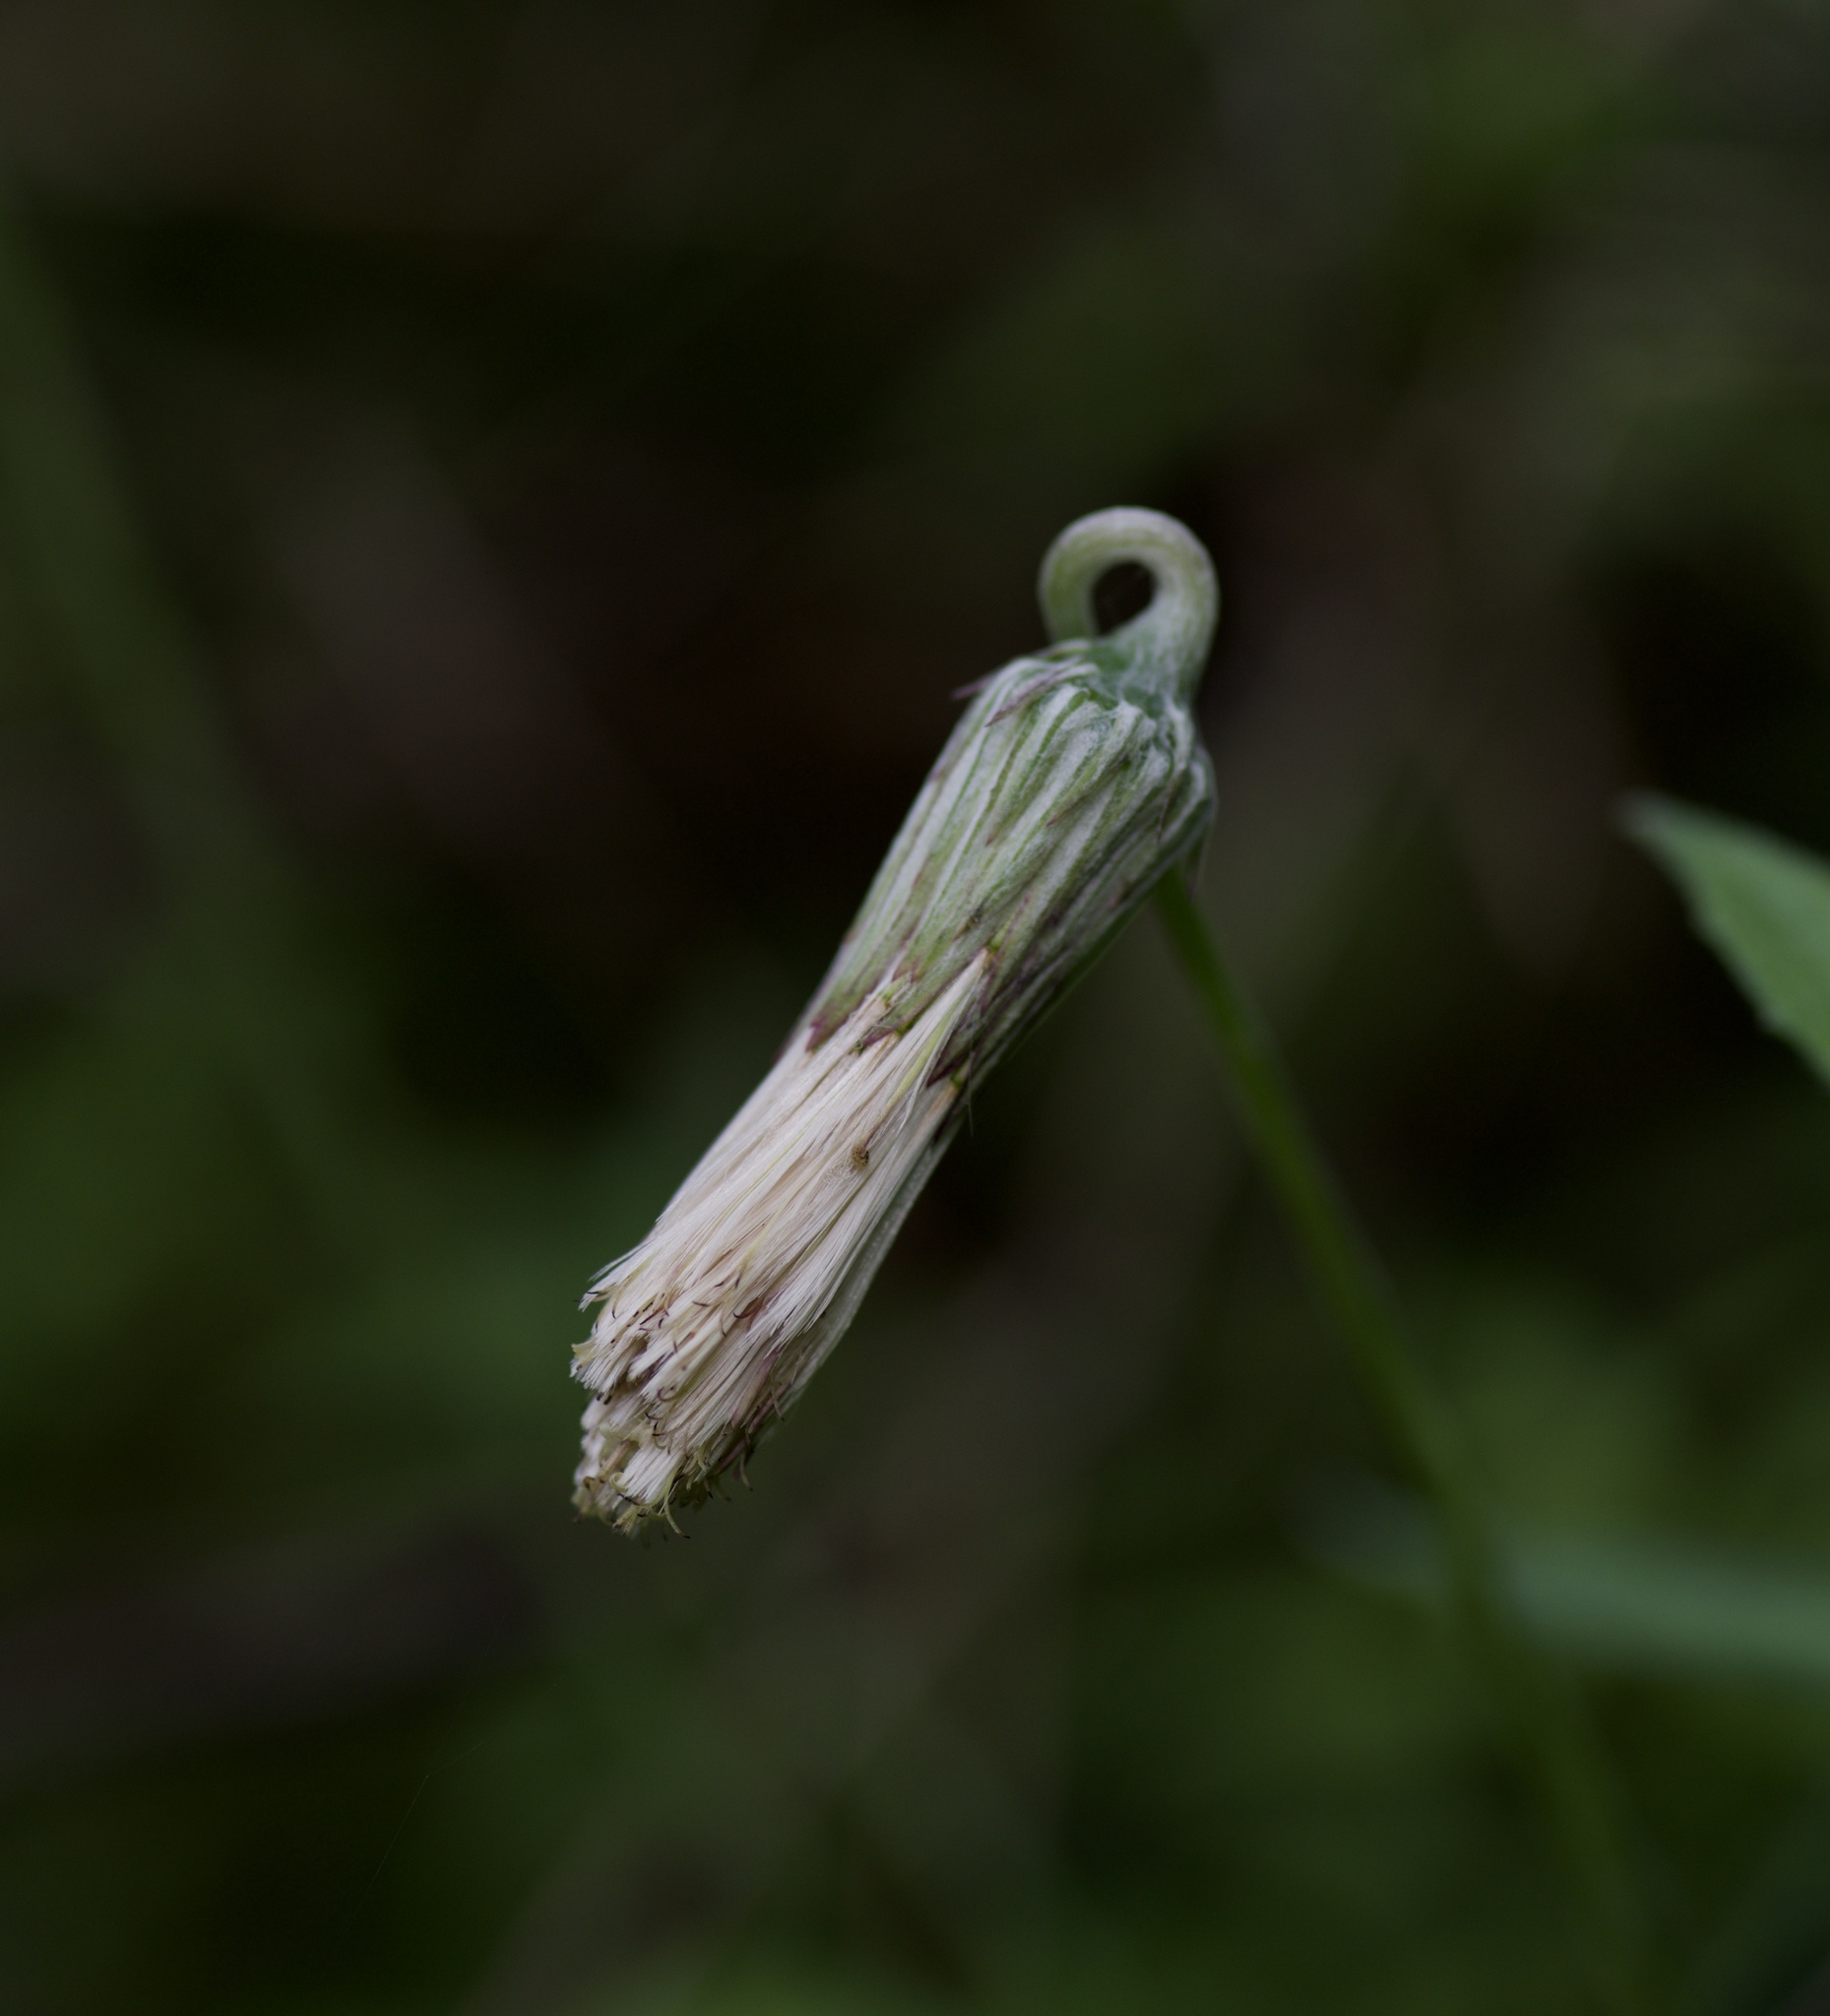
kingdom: Plantae
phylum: Tracheophyta
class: Magnoliopsida
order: Asterales
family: Asteraceae
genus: Chaptalia
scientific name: Chaptalia texana
